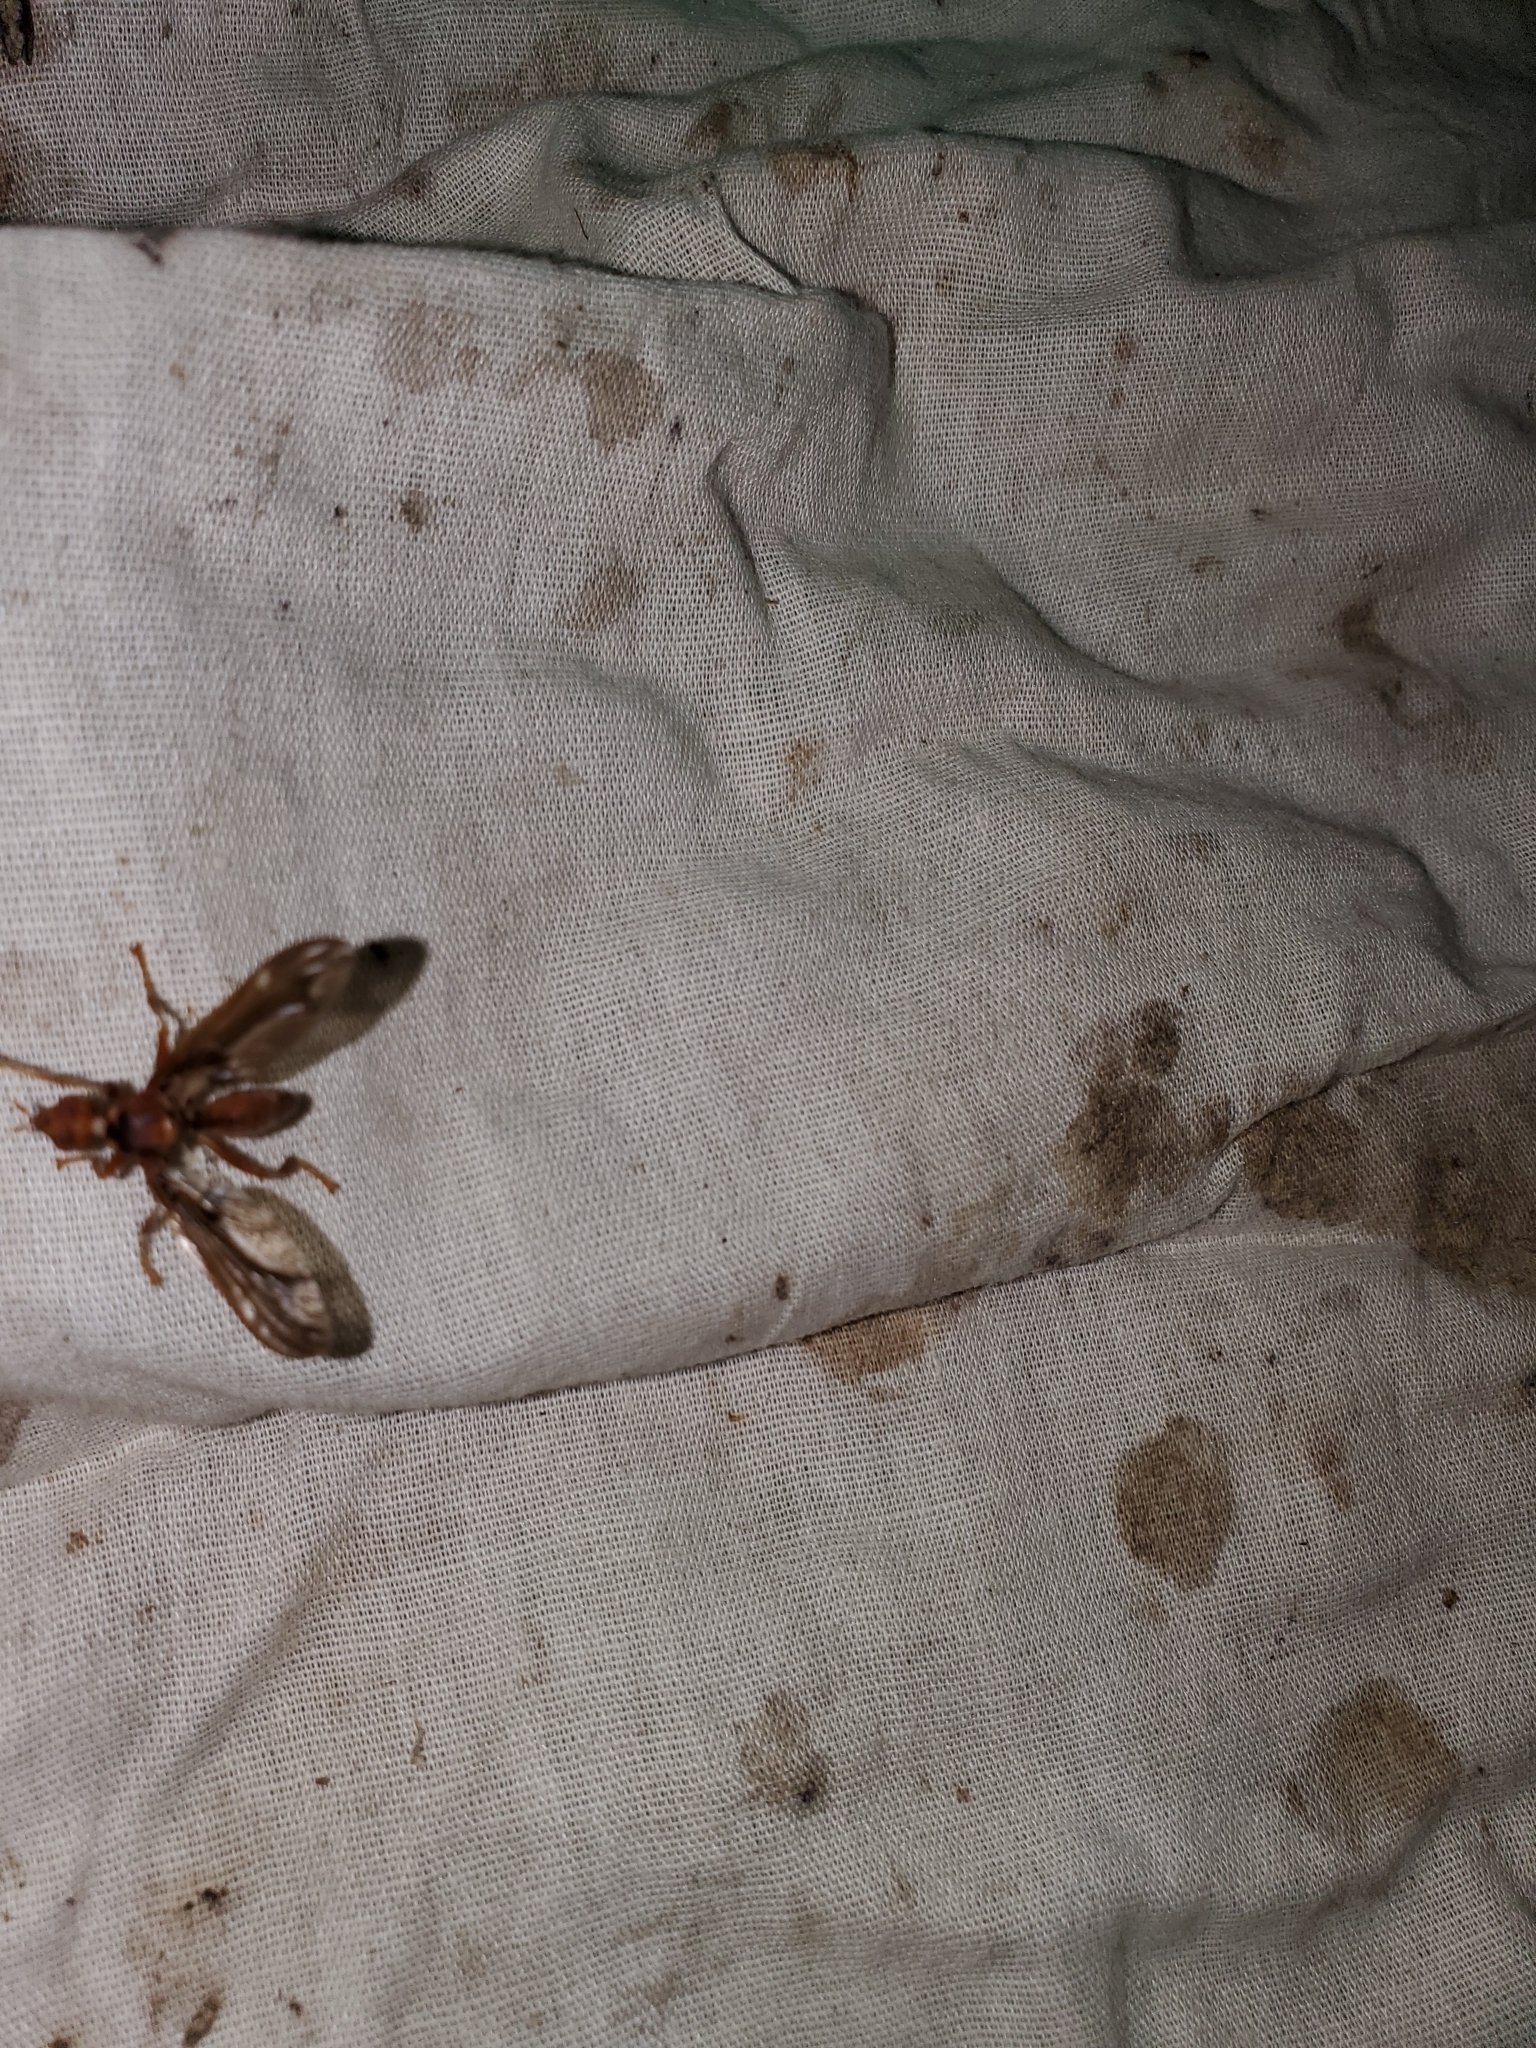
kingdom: Animalia
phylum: Arthropoda
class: Insecta
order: Diptera
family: Pyrgotidae
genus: Pyrgota
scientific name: Pyrgota undata
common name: Waved light fly
